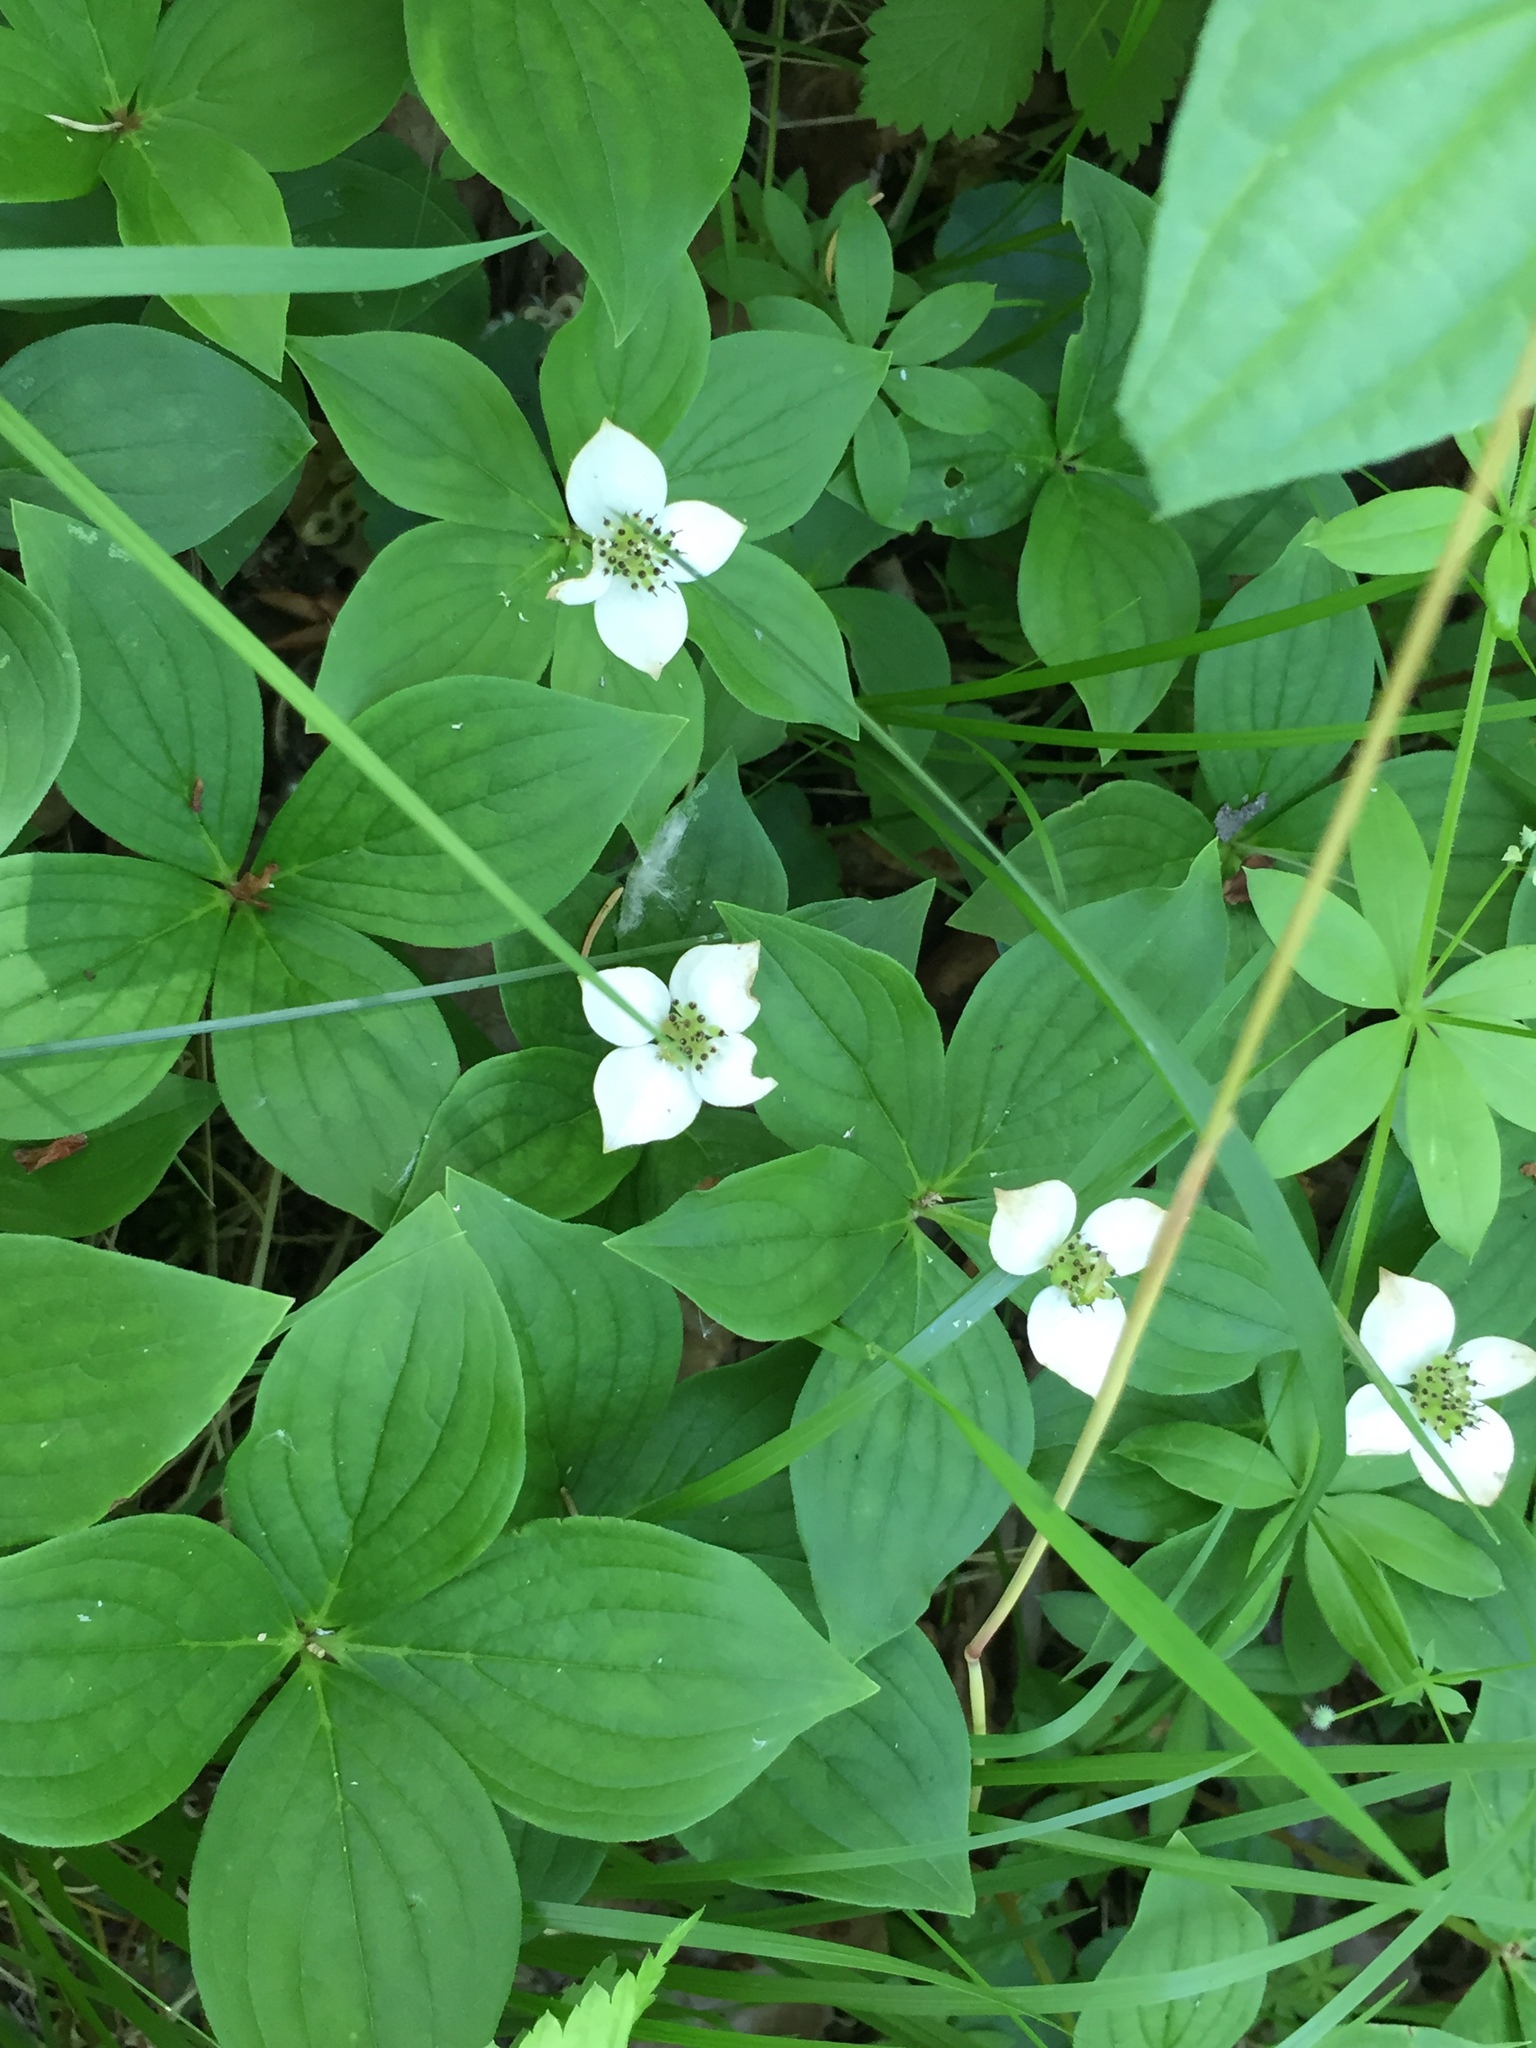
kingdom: Plantae
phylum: Tracheophyta
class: Magnoliopsida
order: Cornales
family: Cornaceae
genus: Cornus
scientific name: Cornus canadensis
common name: Creeping dogwood
